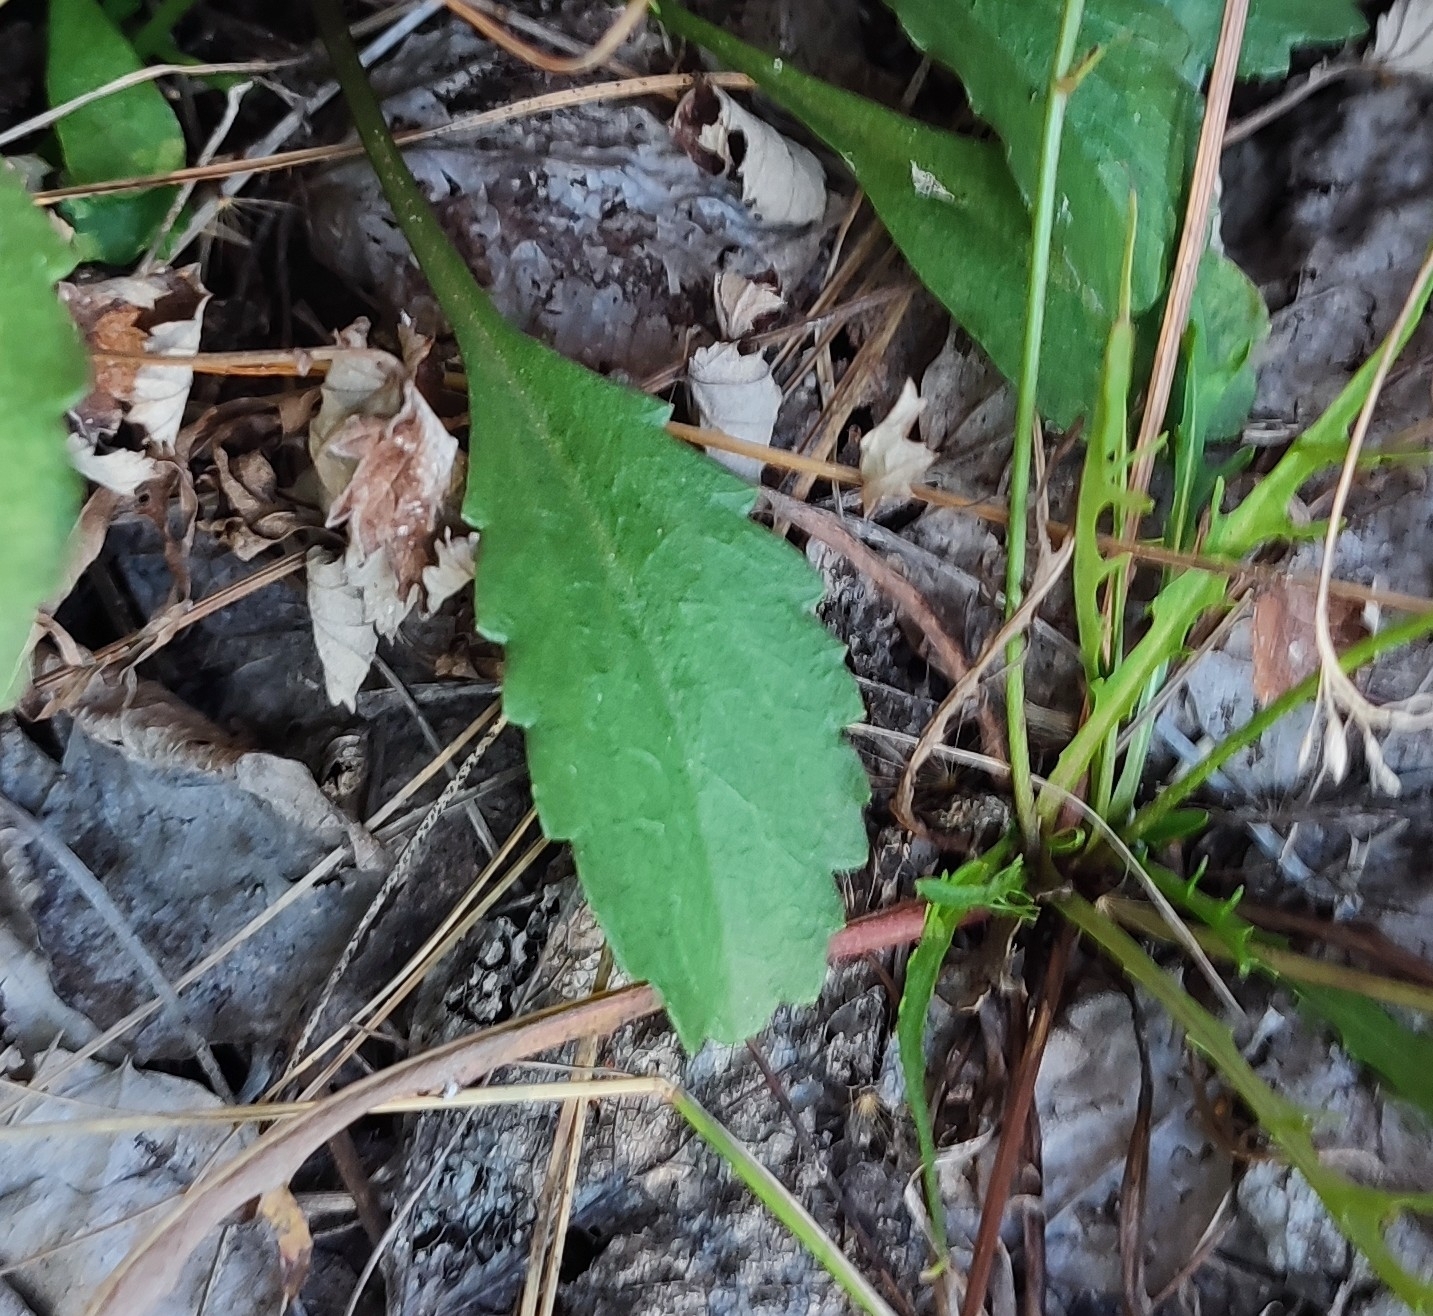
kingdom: Plantae
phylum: Tracheophyta
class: Magnoliopsida
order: Asterales
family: Asteraceae
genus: Leucanthemum
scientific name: Leucanthemum ircutianum
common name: Daisy
